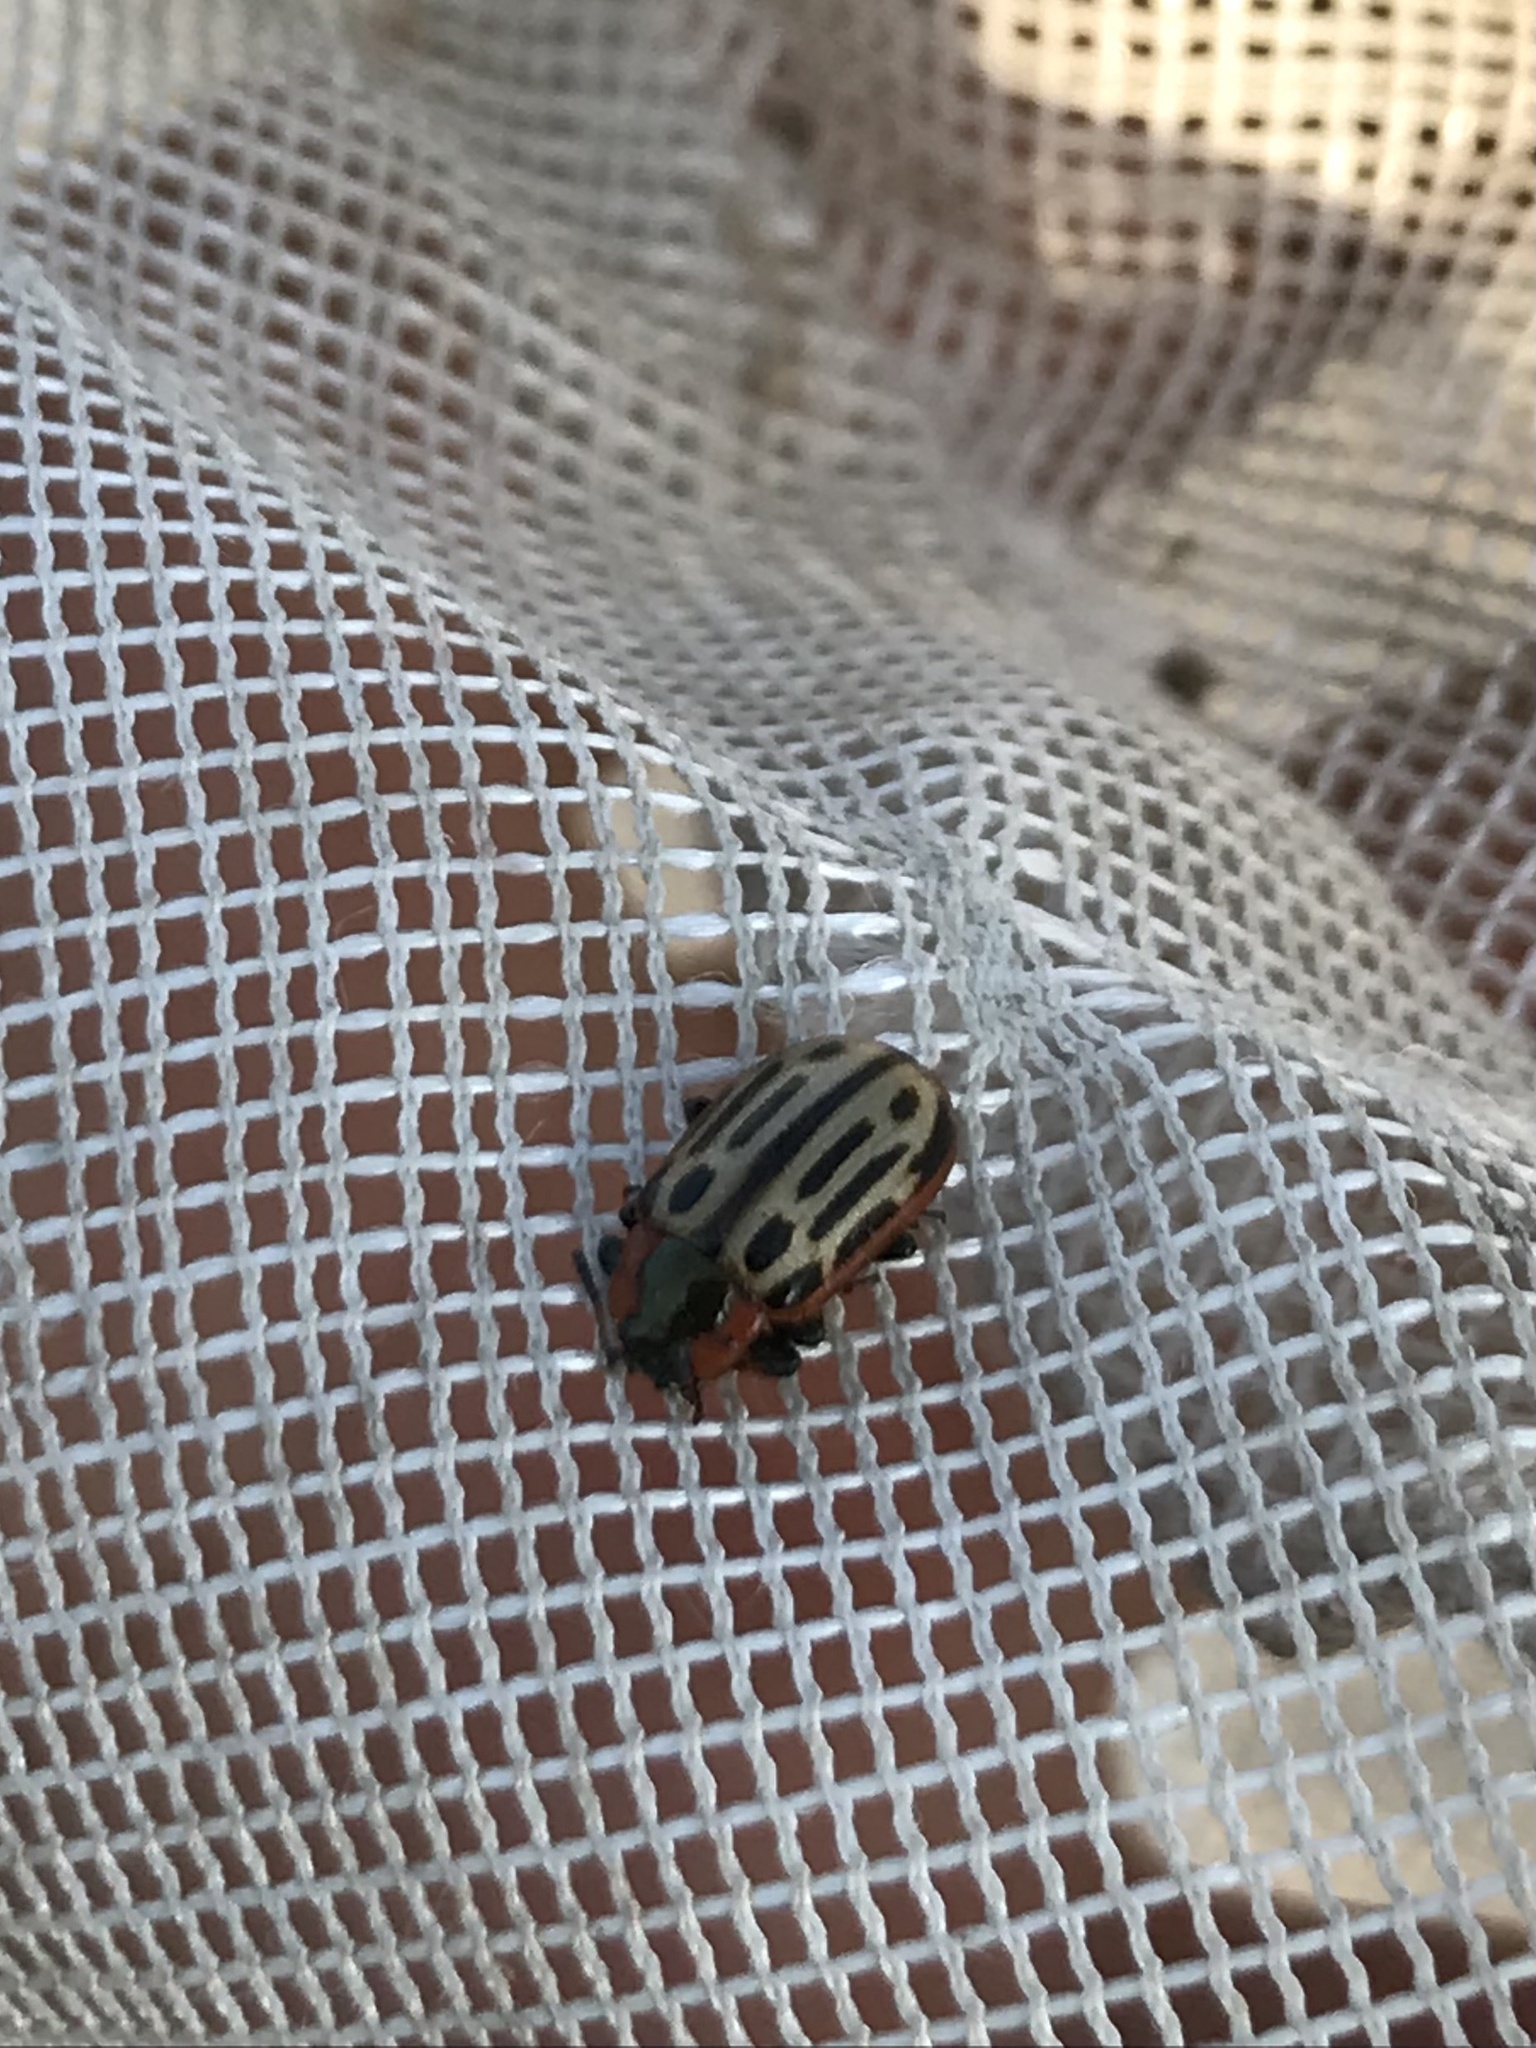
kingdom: Animalia
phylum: Arthropoda
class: Insecta
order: Coleoptera
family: Chrysomelidae
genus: Aethiopocassis
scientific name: Aethiopocassis scripta
